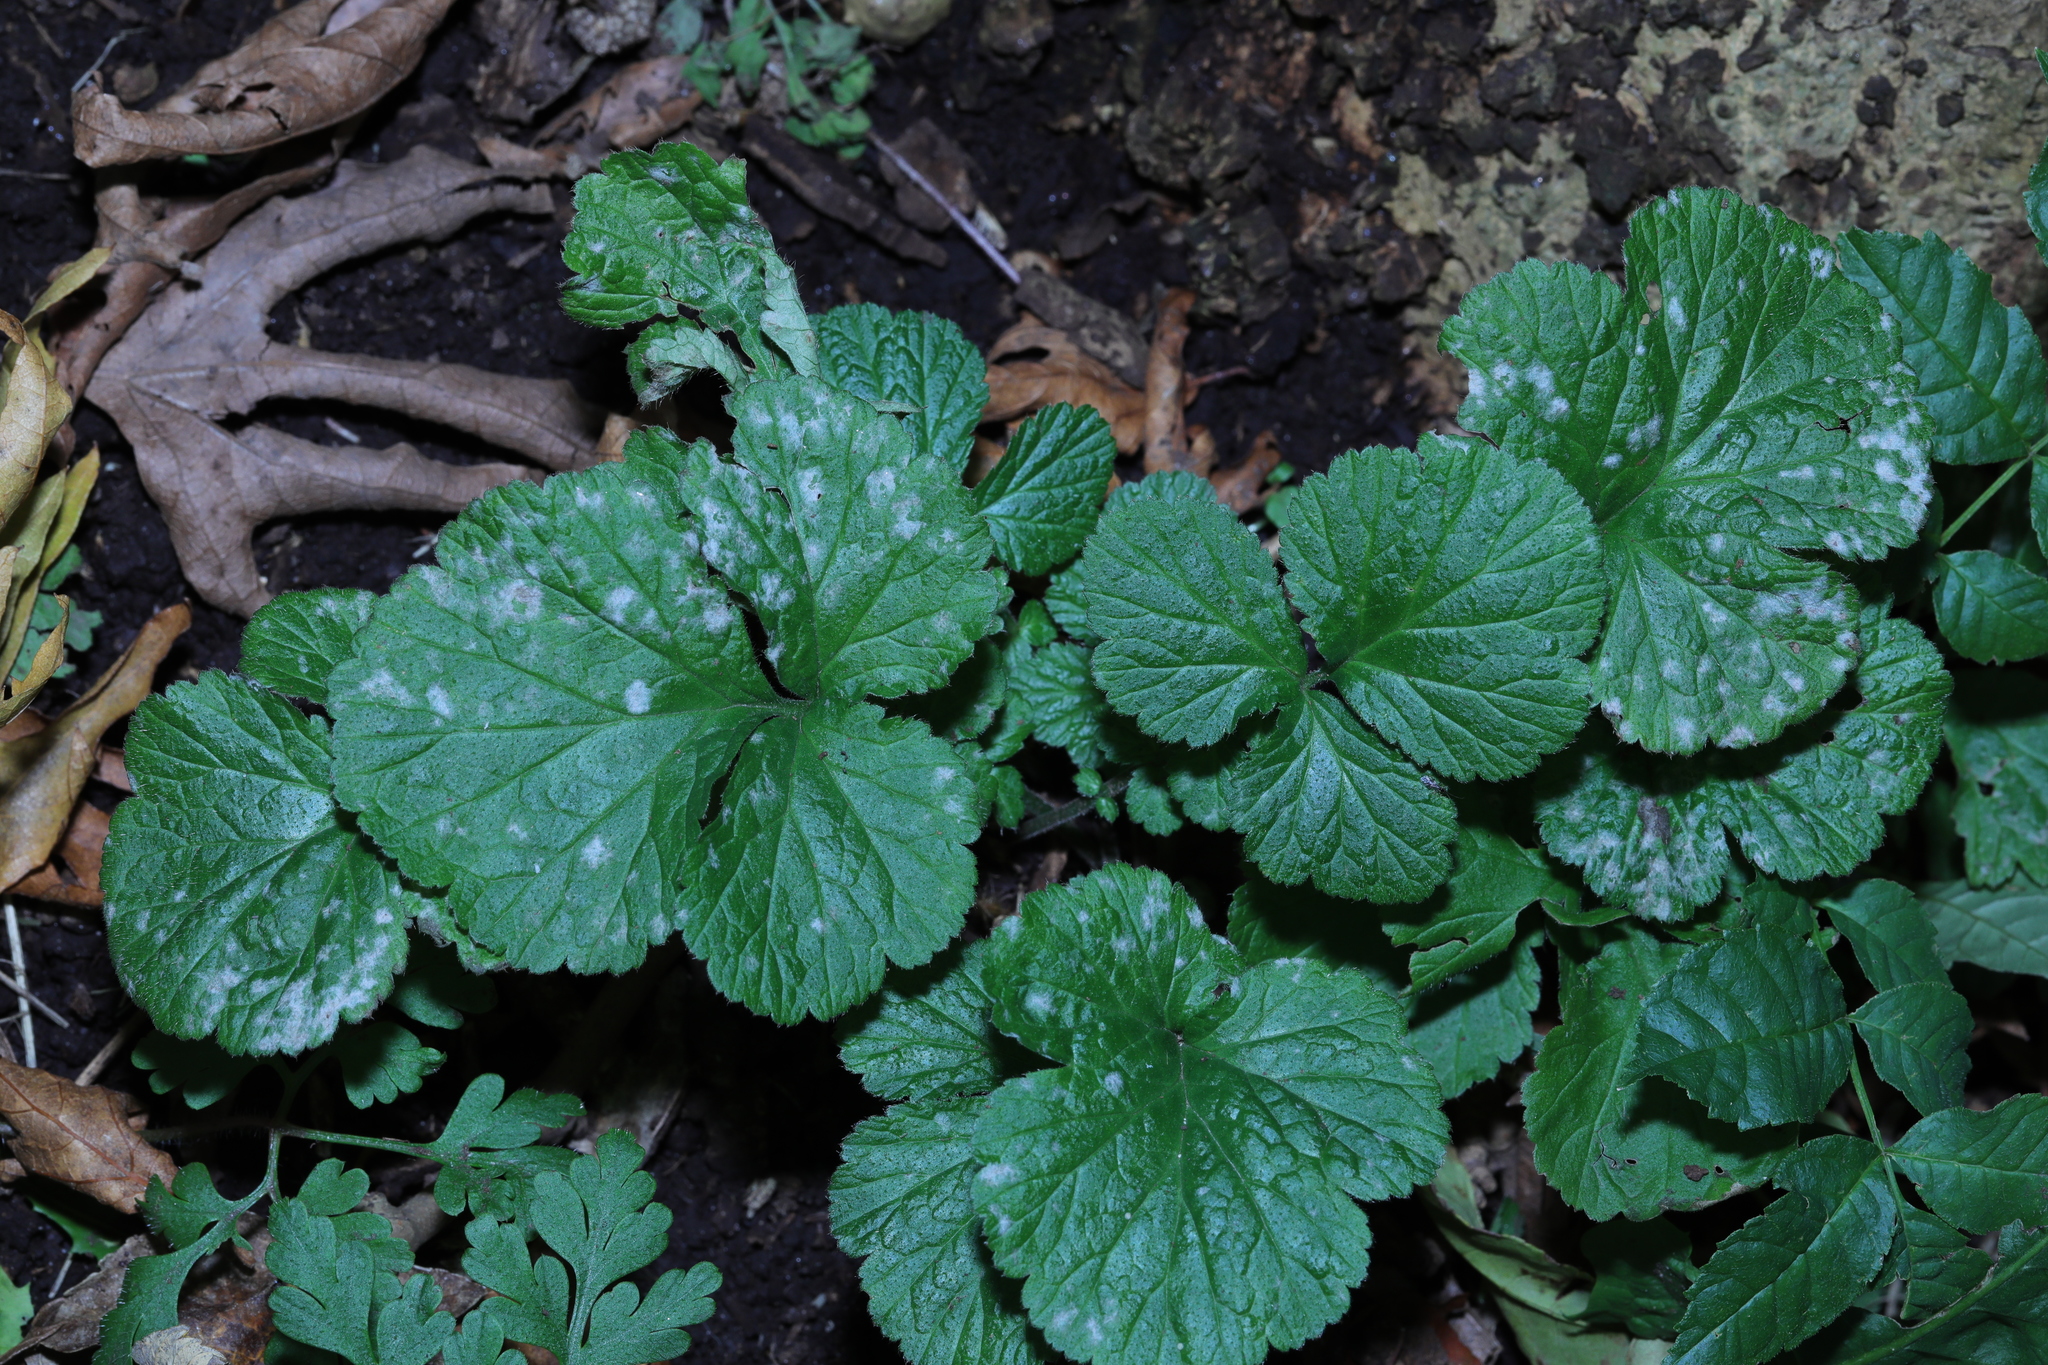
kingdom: Plantae
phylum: Tracheophyta
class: Magnoliopsida
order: Rosales
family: Rosaceae
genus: Geum
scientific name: Geum urbanum
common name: Wood avens
